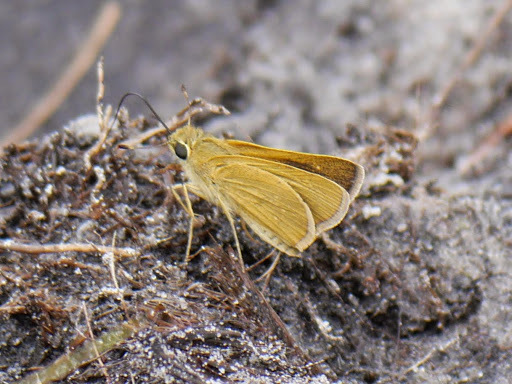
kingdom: Animalia
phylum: Arthropoda
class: Insecta
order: Lepidoptera
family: Hesperiidae
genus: Borbo
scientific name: Borbo micans
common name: Marsh swift
